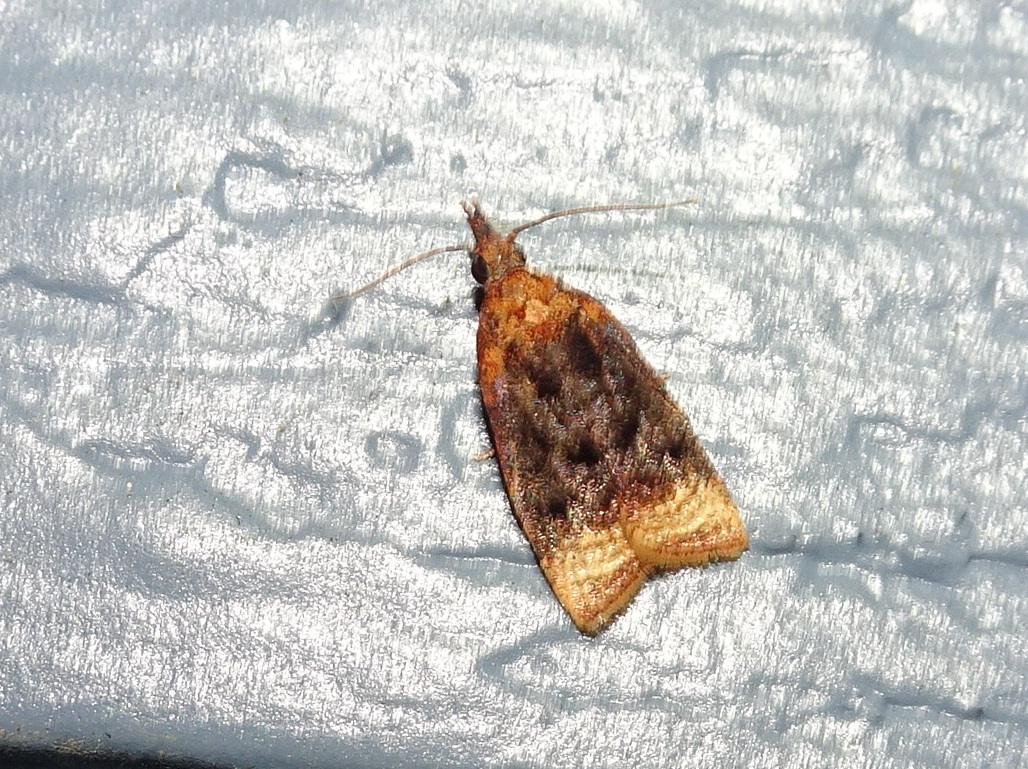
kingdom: Animalia
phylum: Arthropoda
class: Insecta
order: Lepidoptera
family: Tortricidae
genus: Platynota
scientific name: Platynota flavedana
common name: Black-shaded platynota moth
